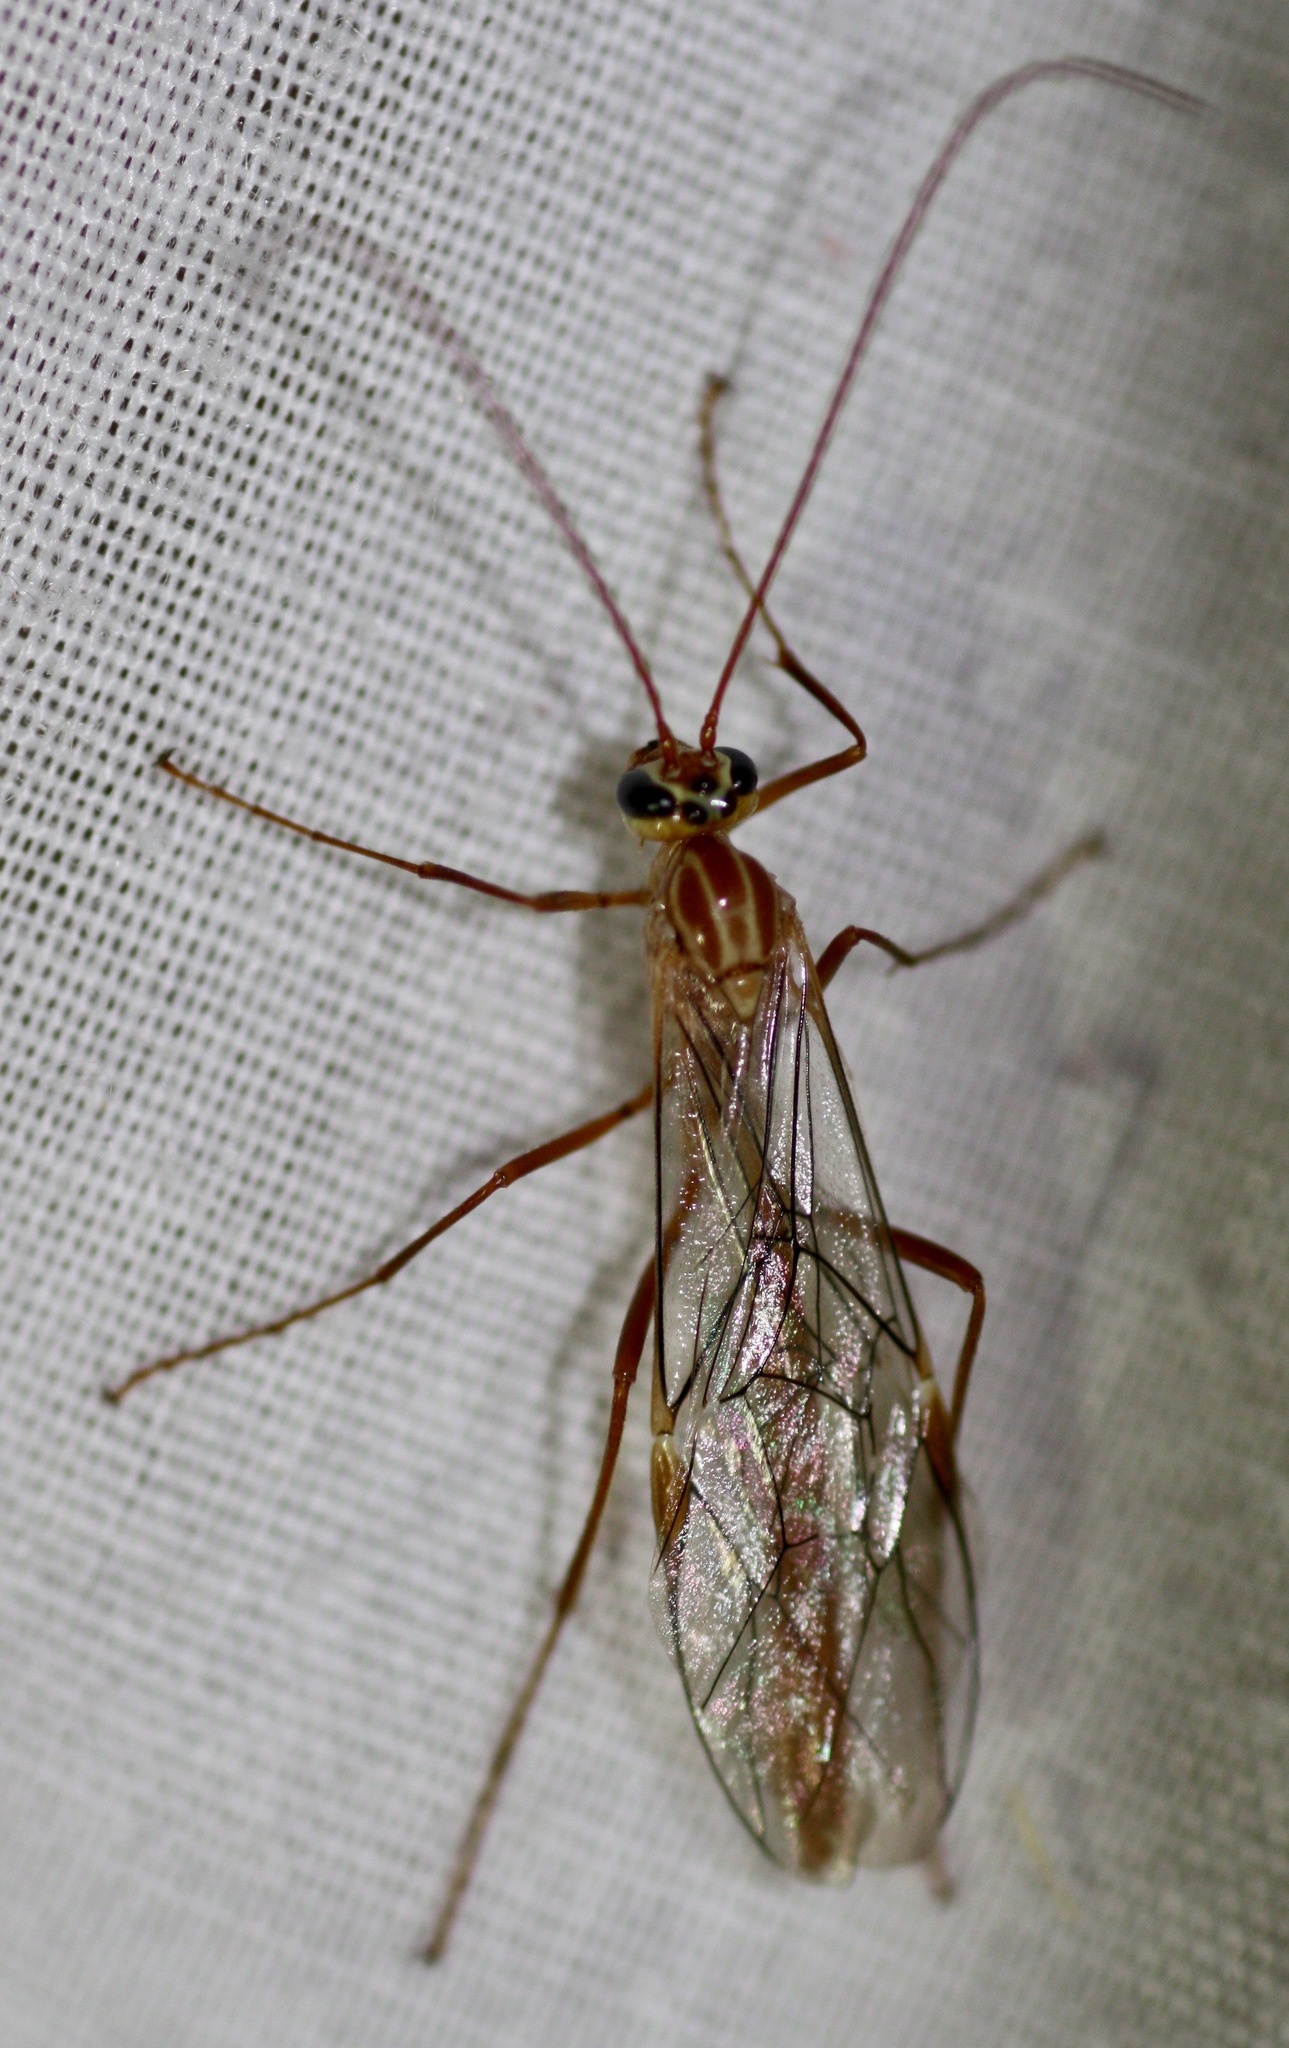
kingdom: Animalia
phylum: Arthropoda
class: Insecta
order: Hymenoptera
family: Ichneumonidae
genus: Ophion
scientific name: Ophion
